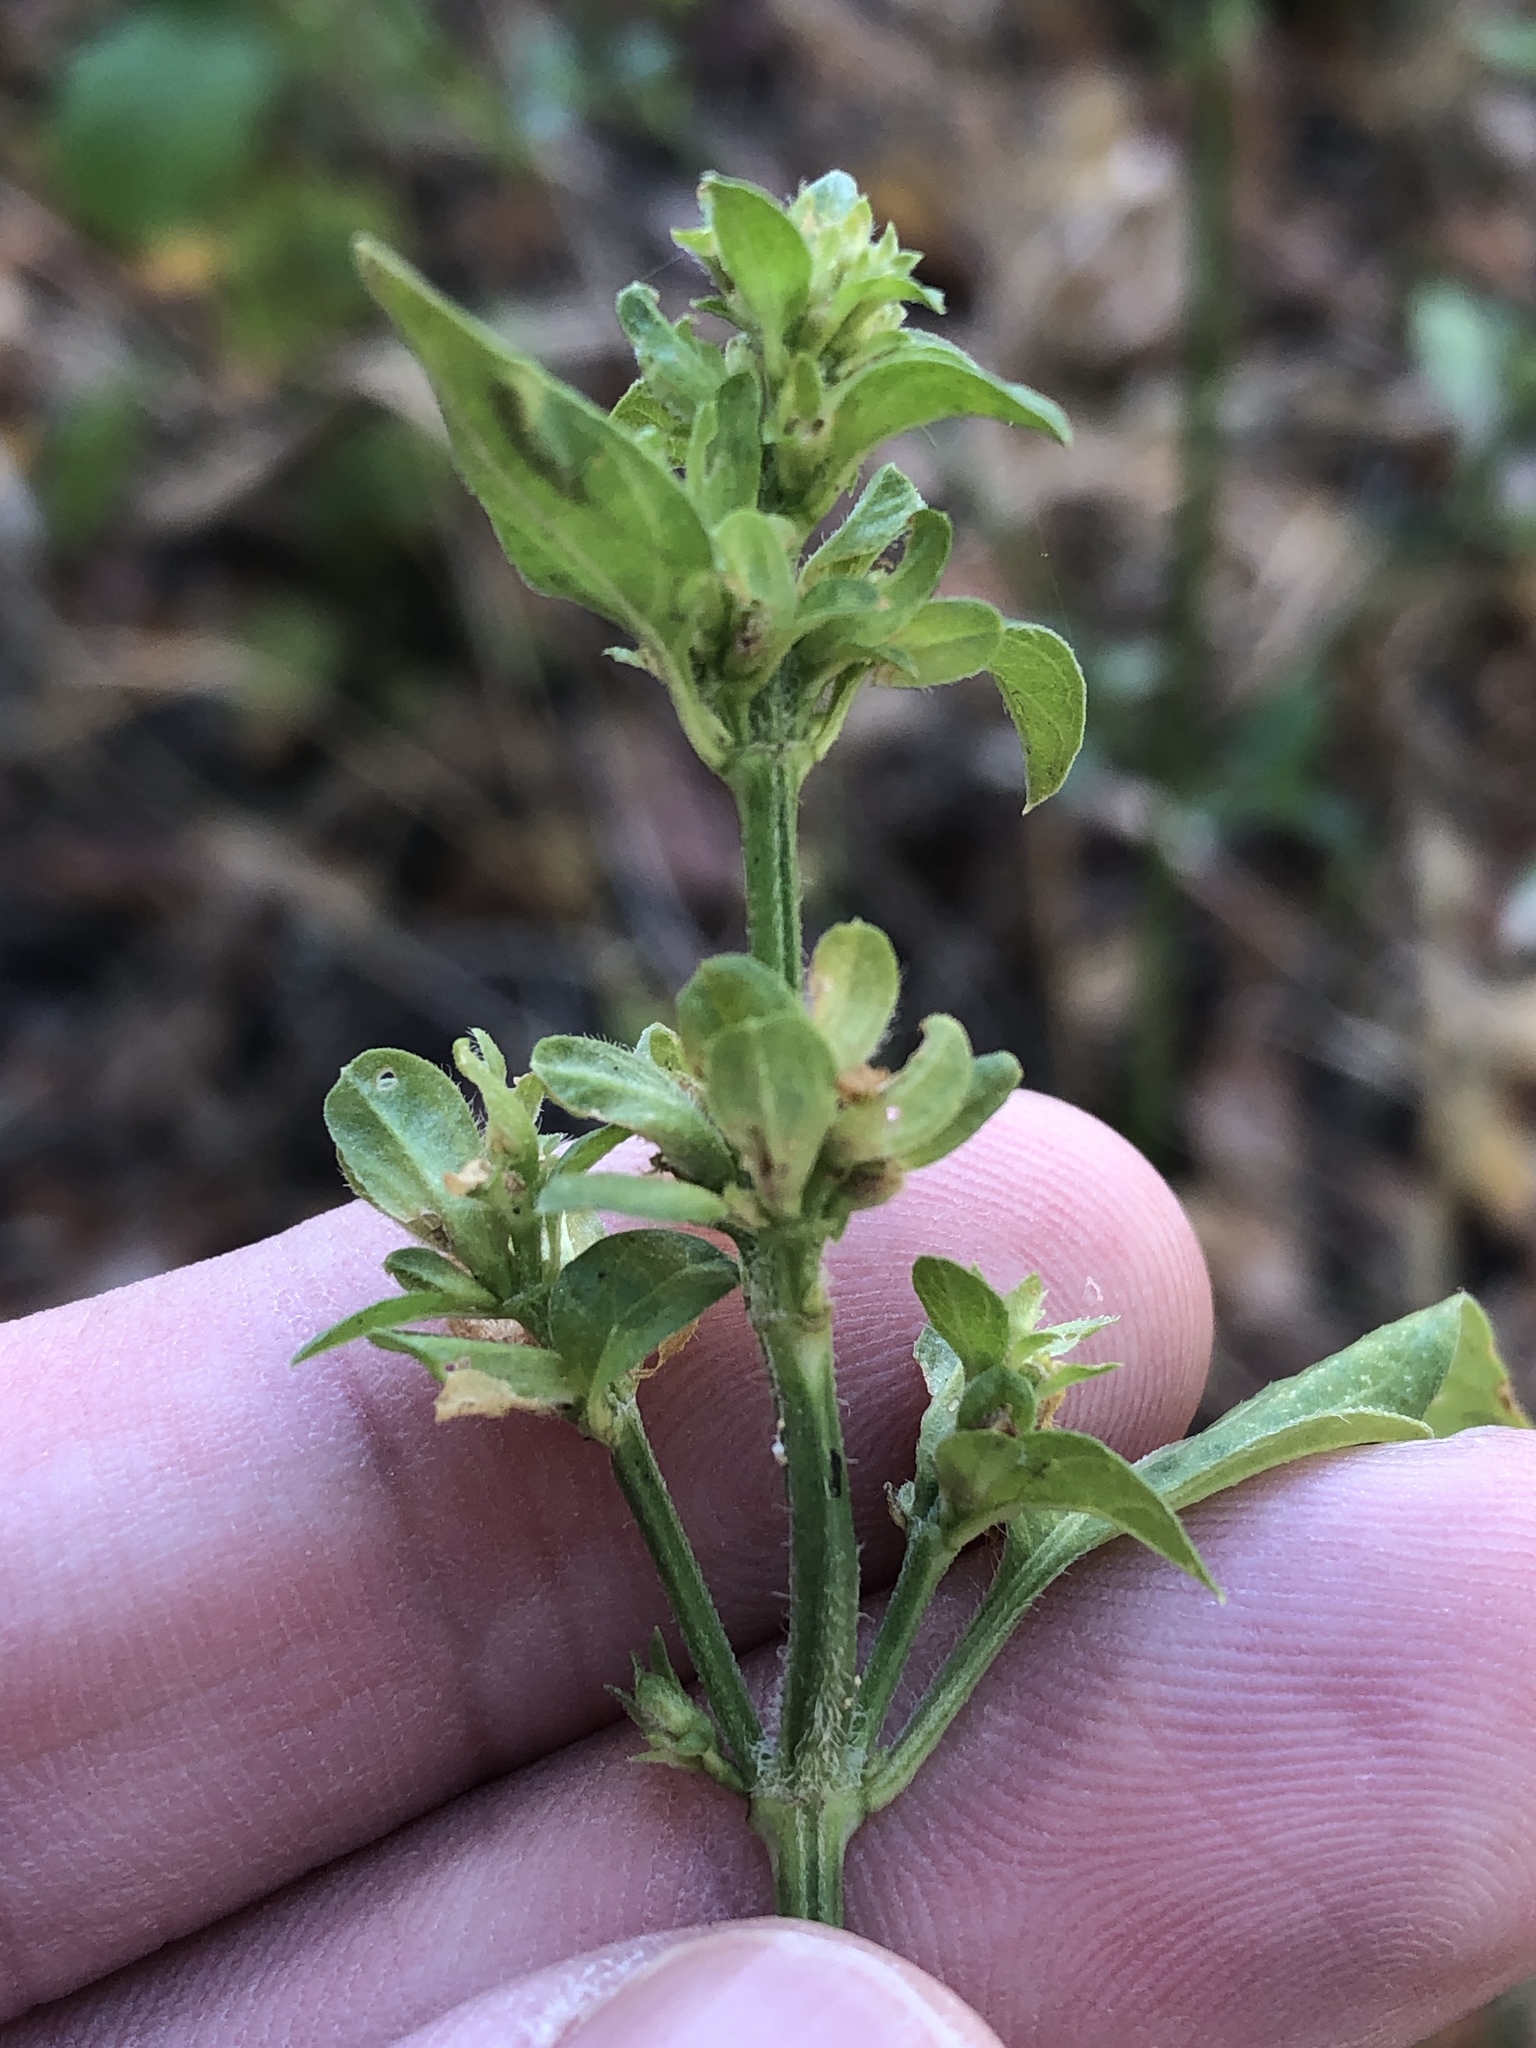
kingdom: Plantae
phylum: Tracheophyta
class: Magnoliopsida
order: Lamiales
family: Acanthaceae
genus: Dicliptera
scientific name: Dicliptera brachiata
